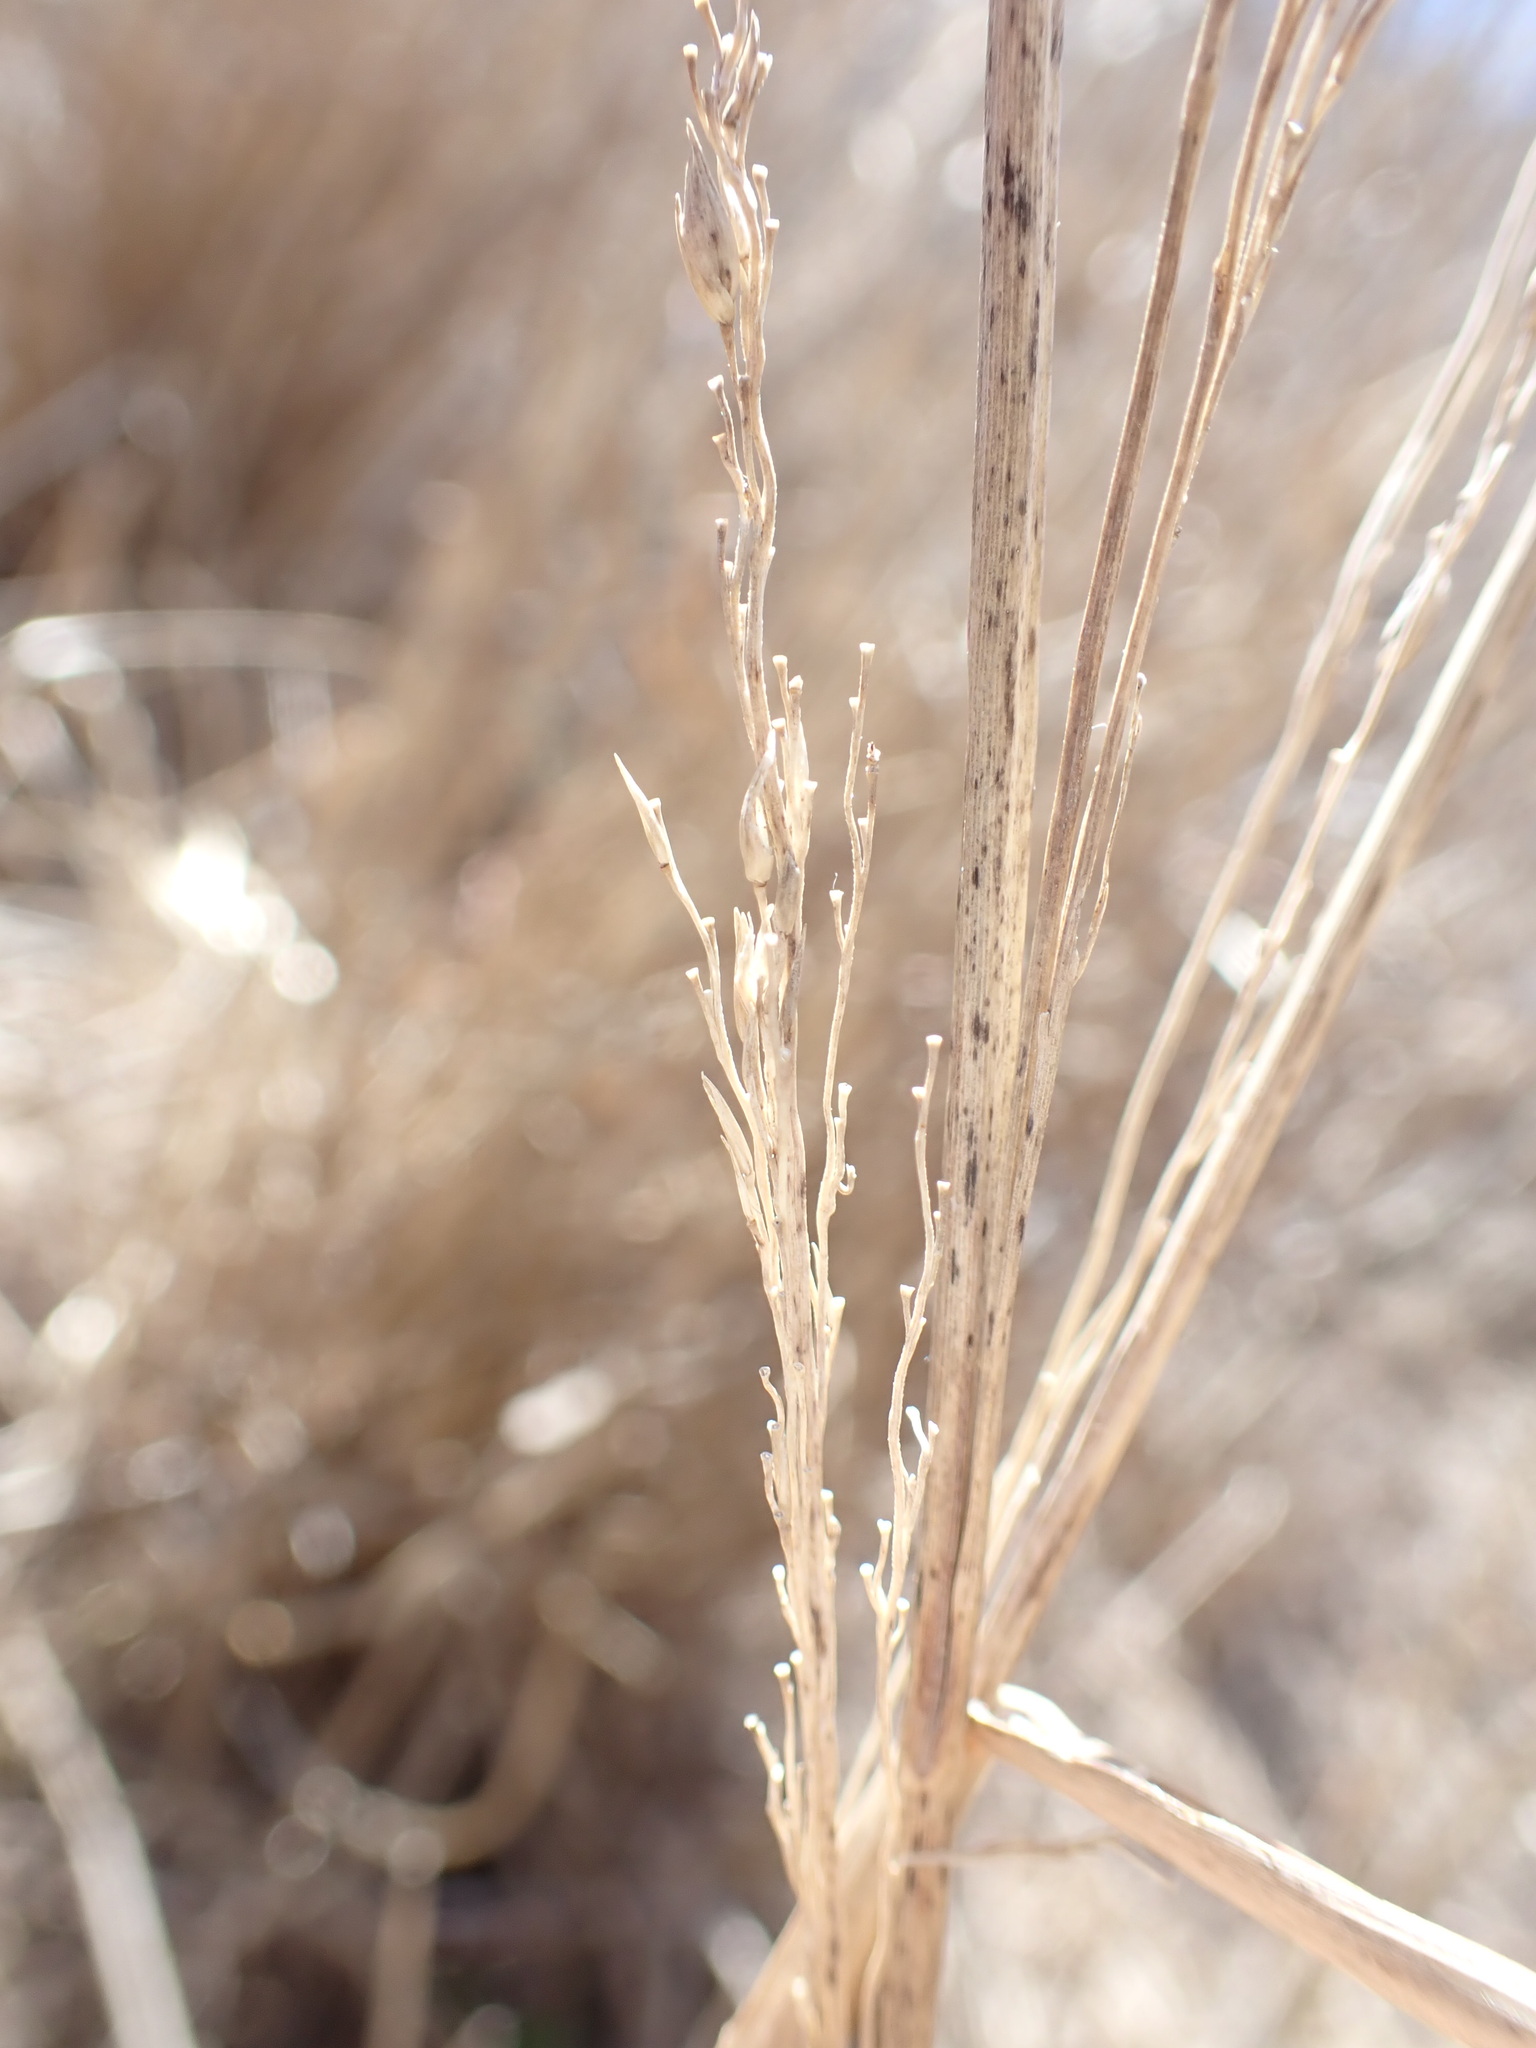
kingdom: Plantae
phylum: Tracheophyta
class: Liliopsida
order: Poales
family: Poaceae
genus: Panicum
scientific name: Panicum amarum
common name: Bitter panicum
